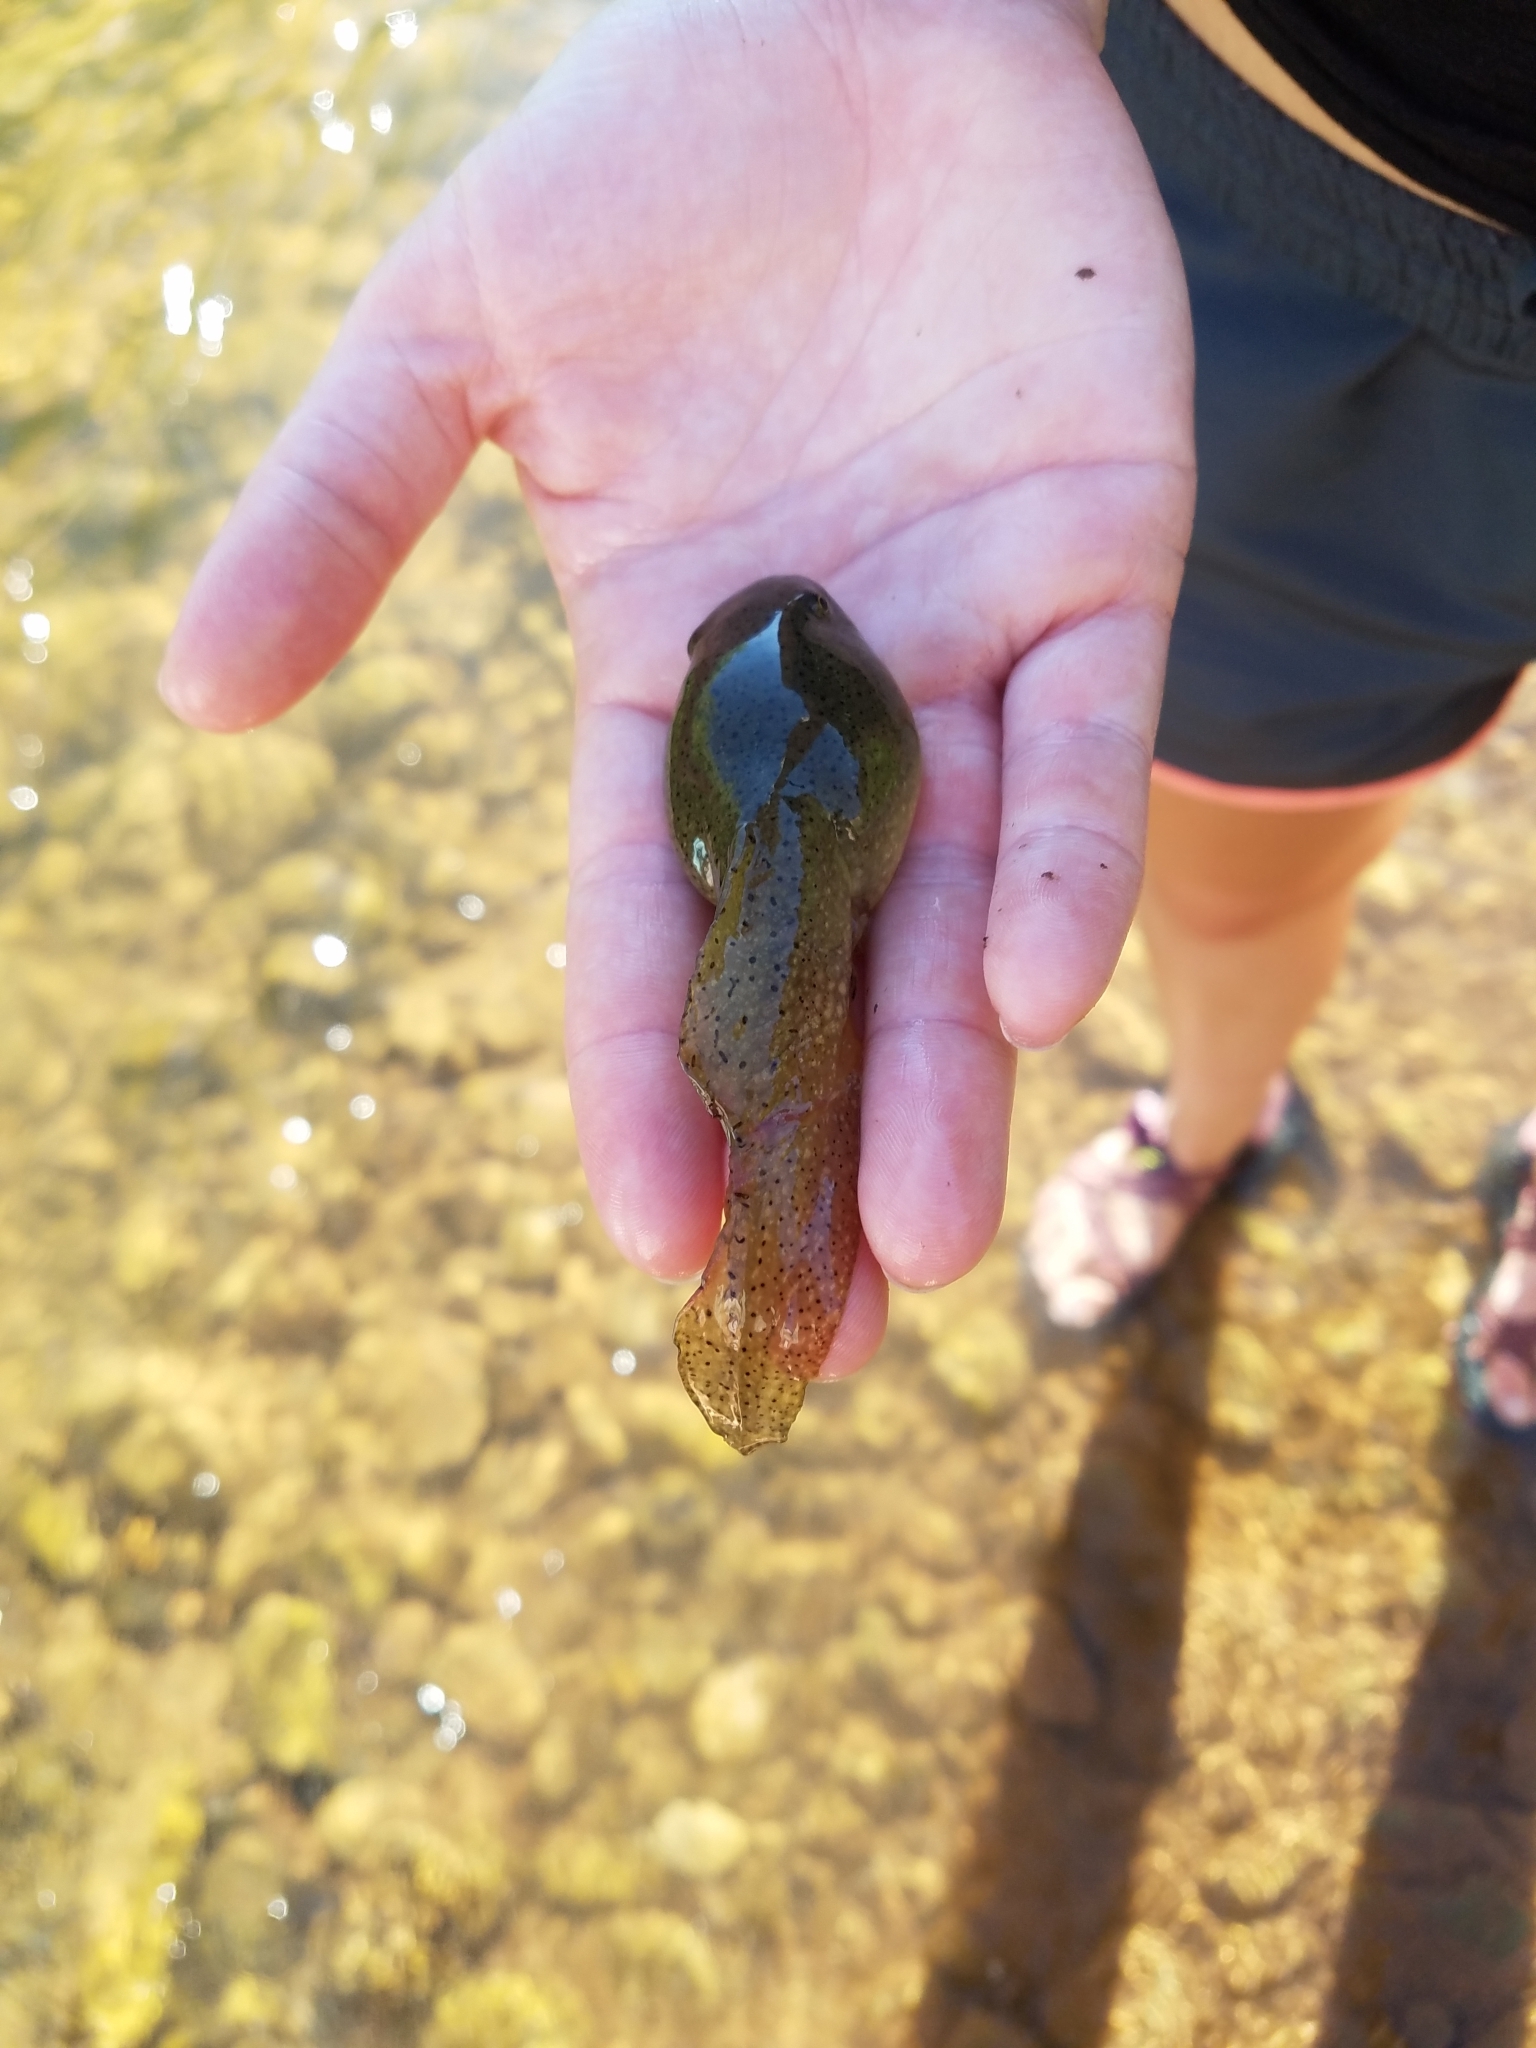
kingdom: Animalia
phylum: Chordata
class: Amphibia
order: Anura
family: Ranidae
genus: Lithobates
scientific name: Lithobates catesbeianus
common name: American bullfrog
